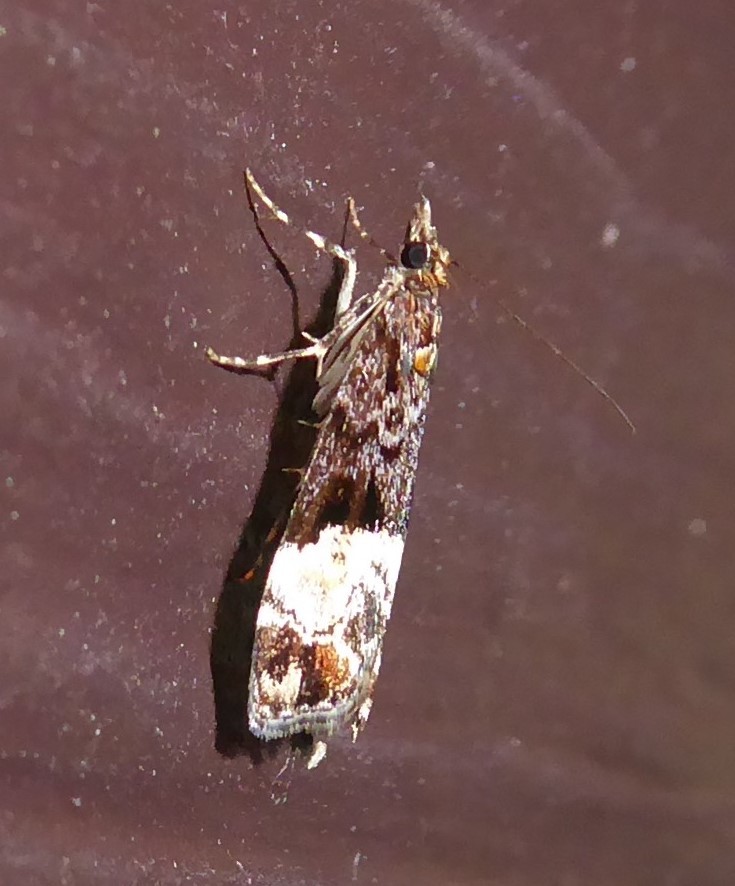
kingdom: Animalia
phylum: Arthropoda
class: Insecta
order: Lepidoptera
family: Crambidae
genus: Scoparia
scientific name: Scoparia minusculalis
